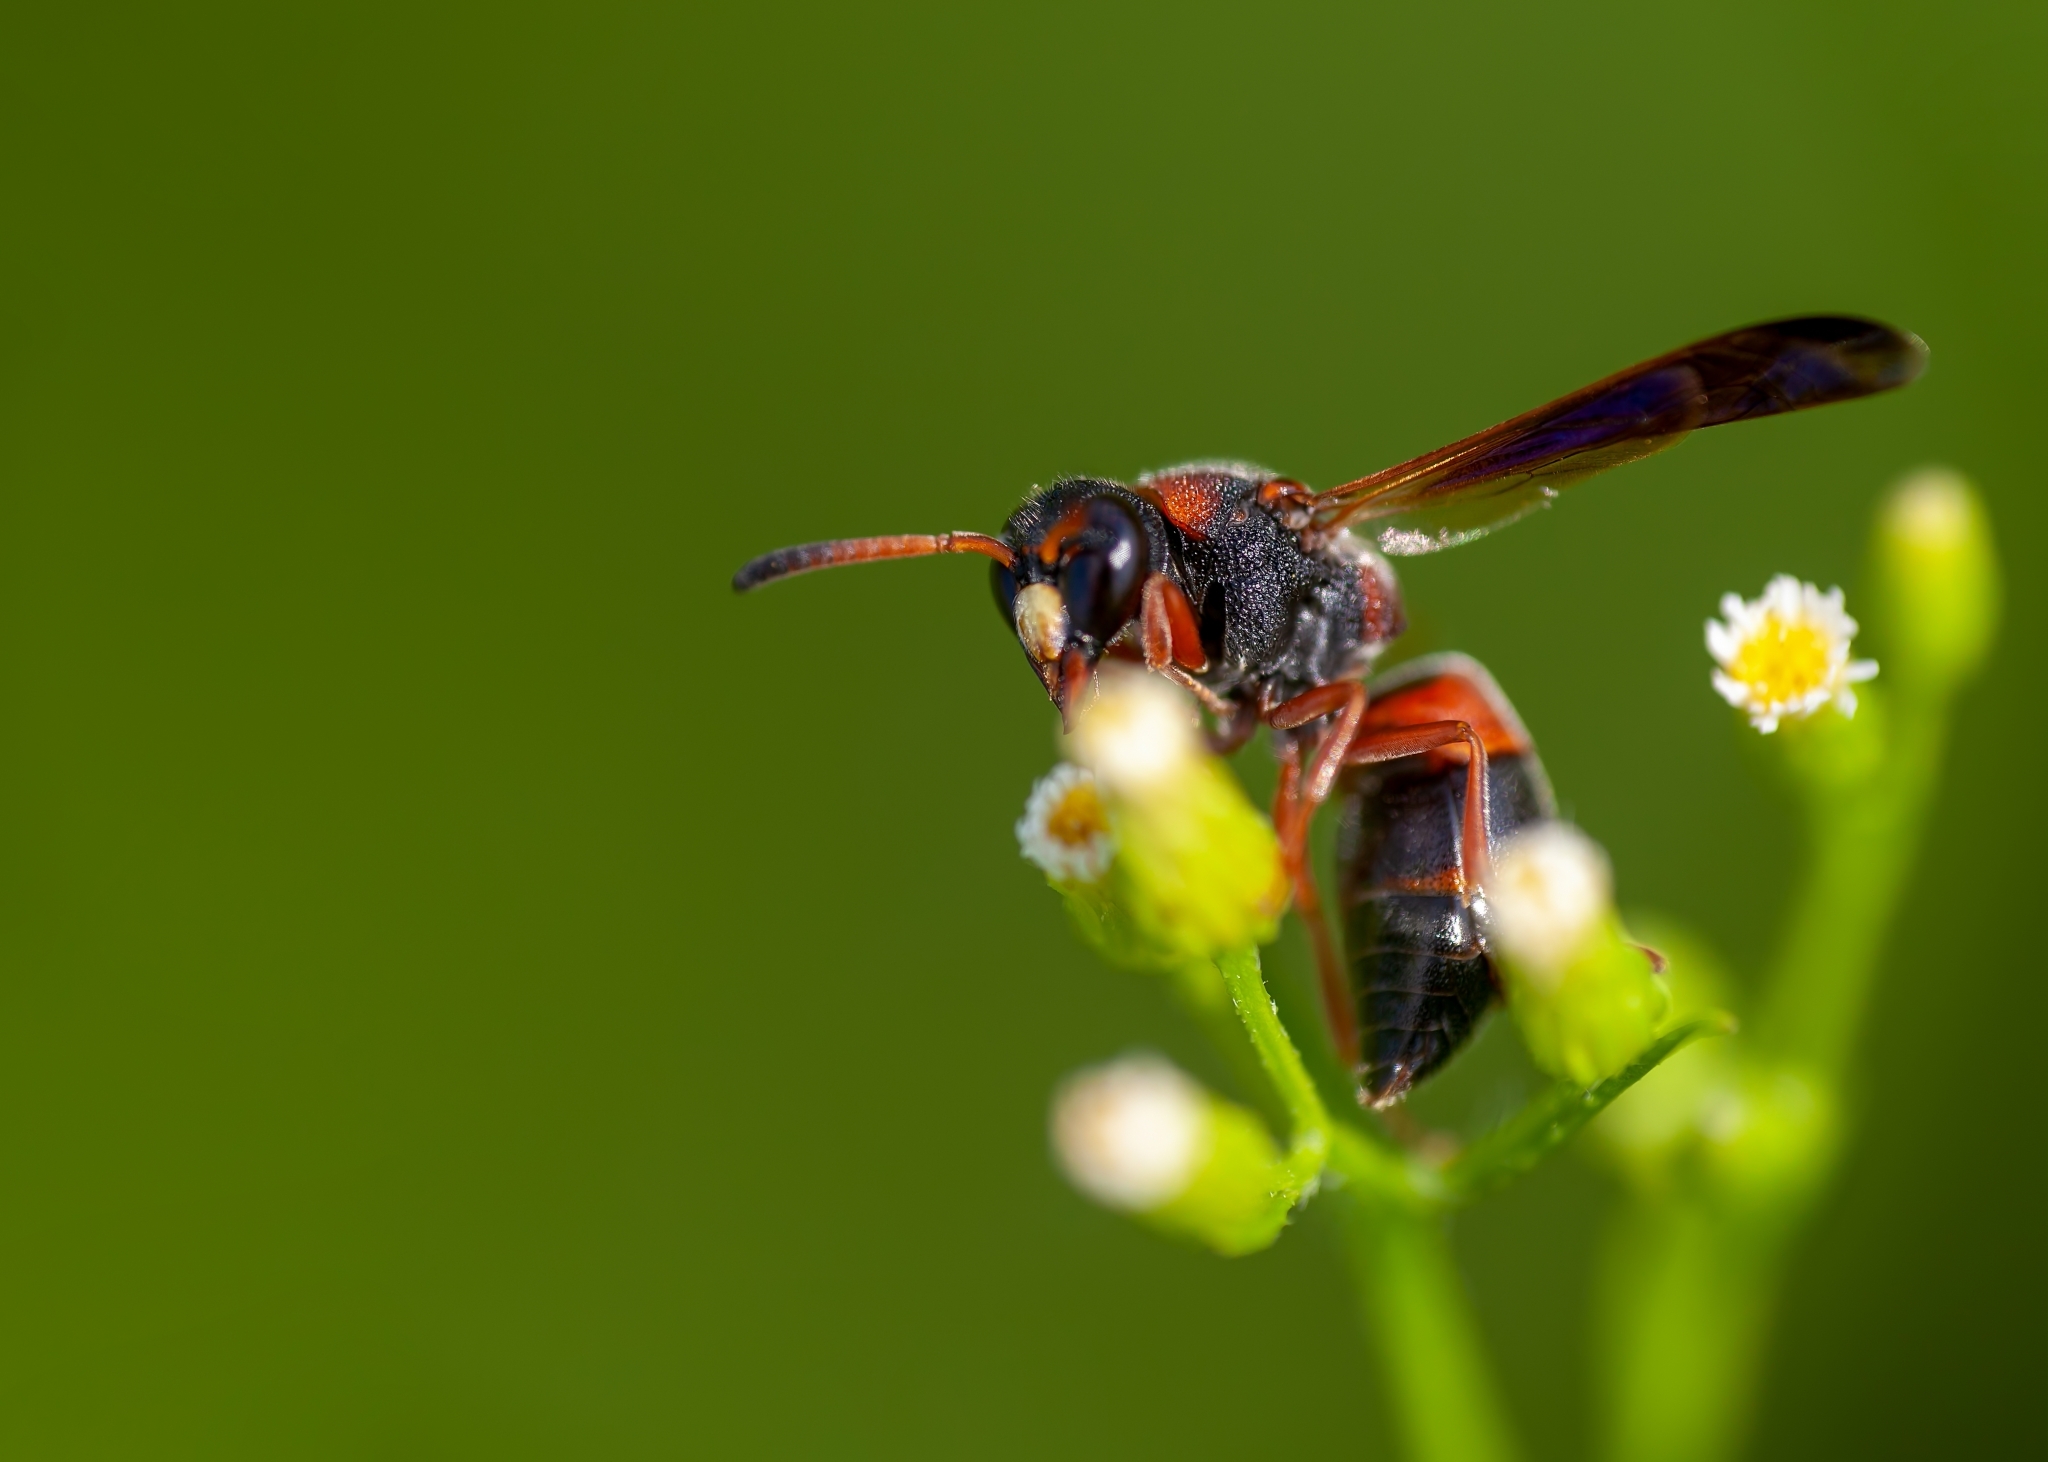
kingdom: Animalia
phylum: Arthropoda
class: Insecta
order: Hymenoptera
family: Eumenidae
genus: Pachodynerus
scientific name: Pachodynerus erynnis
